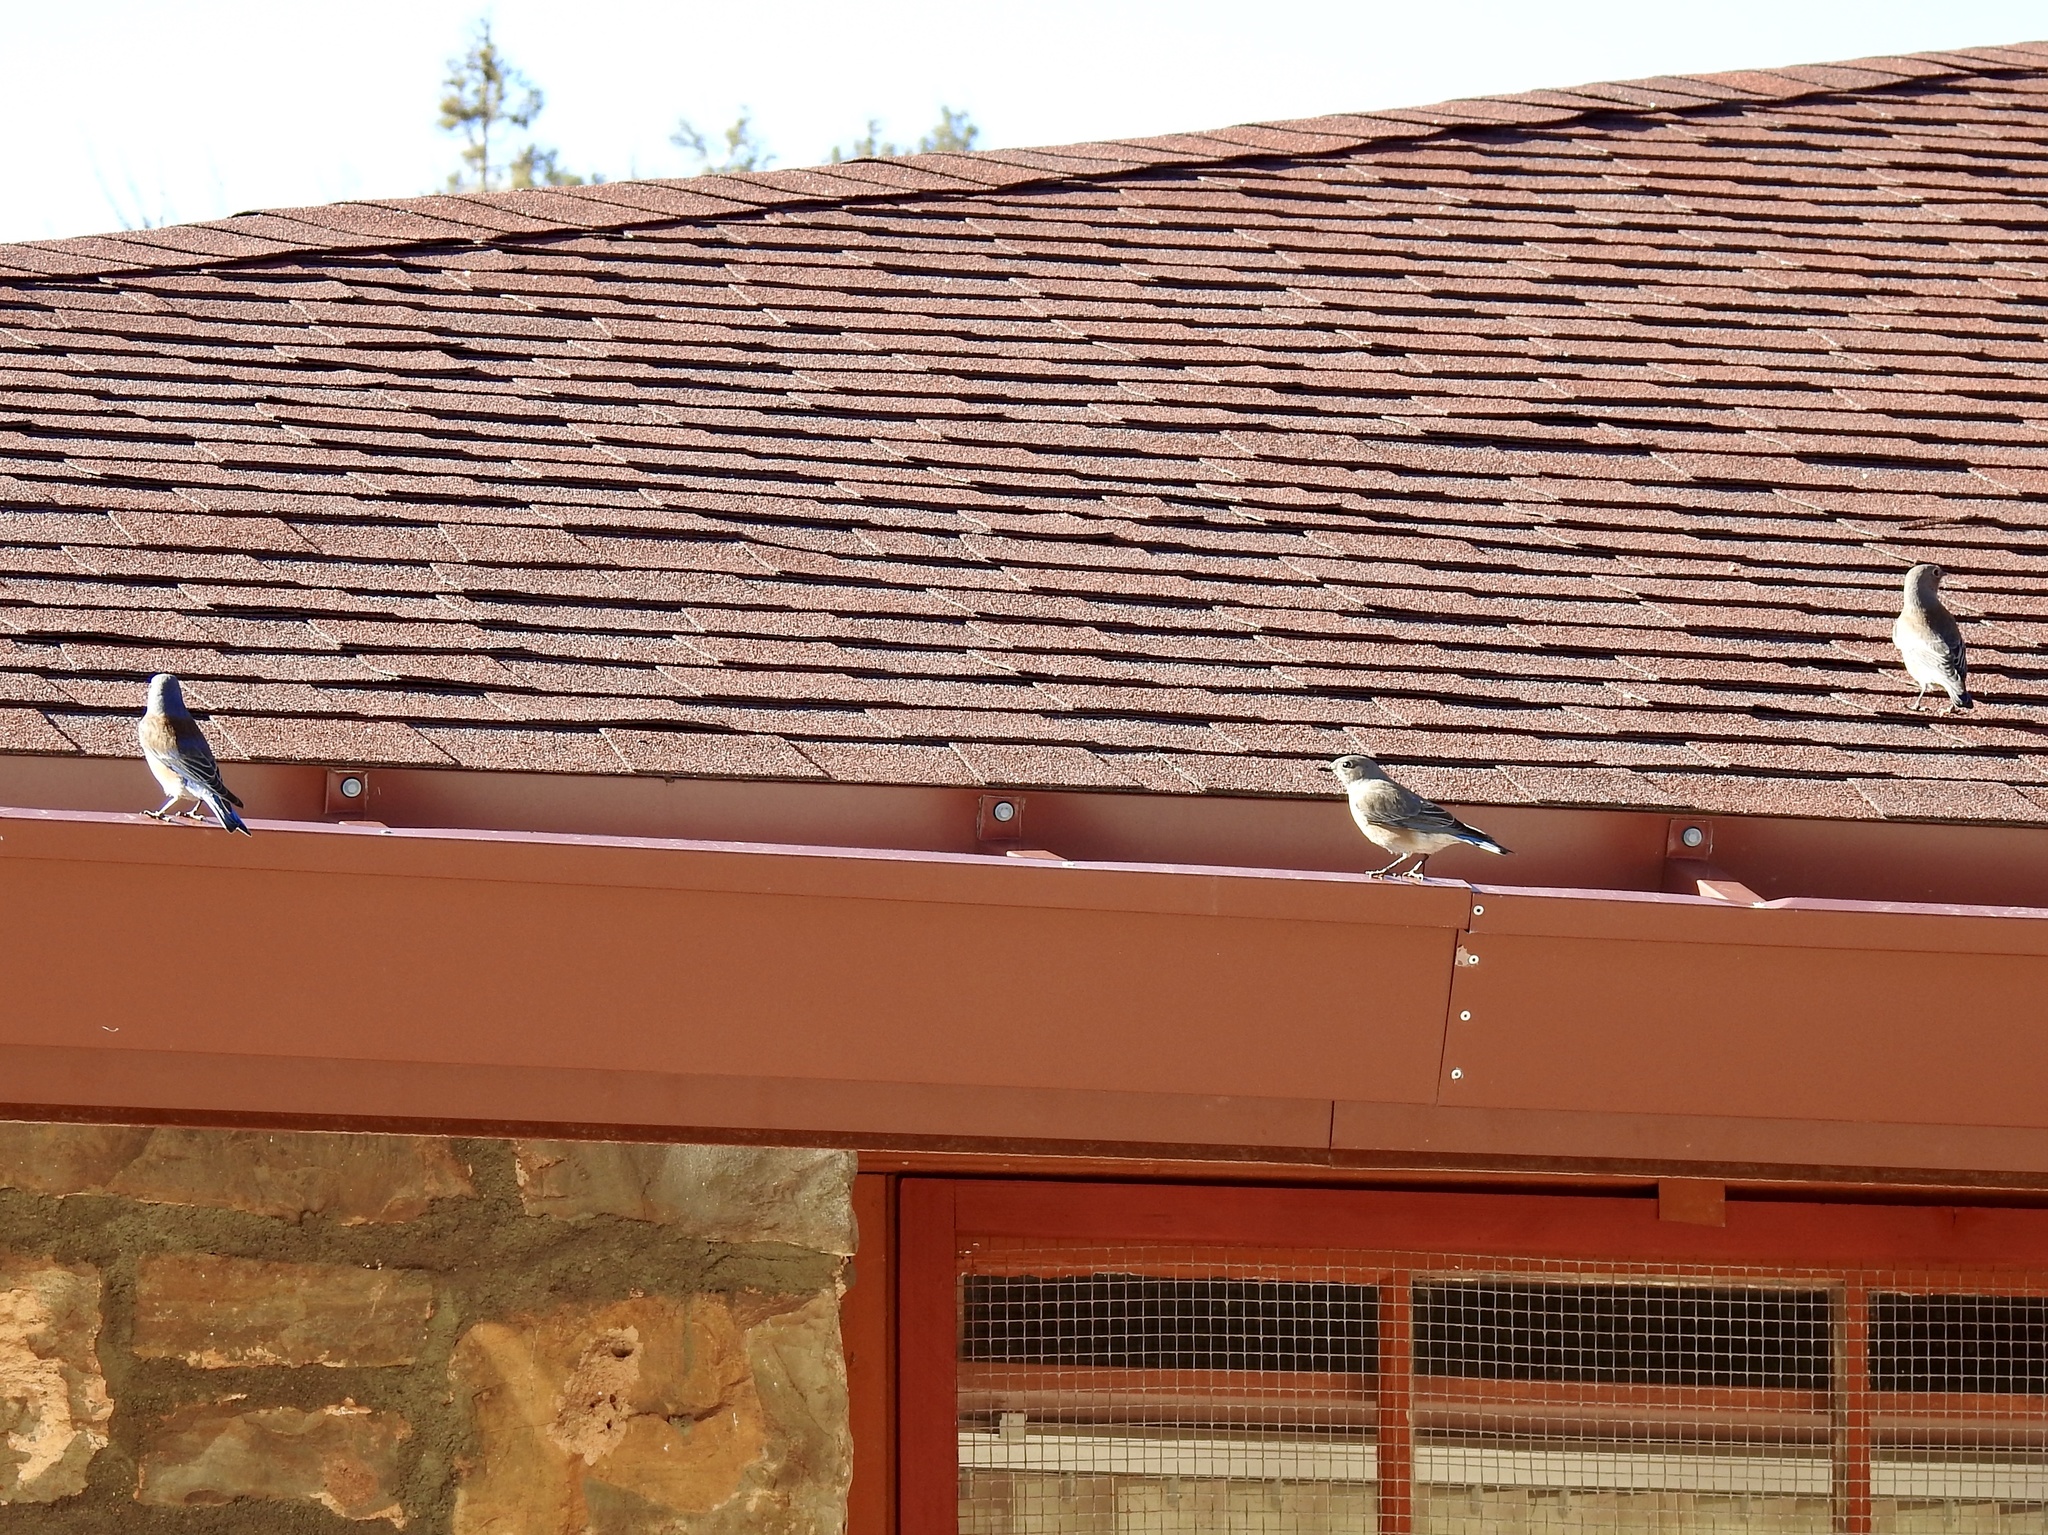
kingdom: Animalia
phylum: Chordata
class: Aves
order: Passeriformes
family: Turdidae
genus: Sialia
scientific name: Sialia mexicana
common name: Western bluebird
